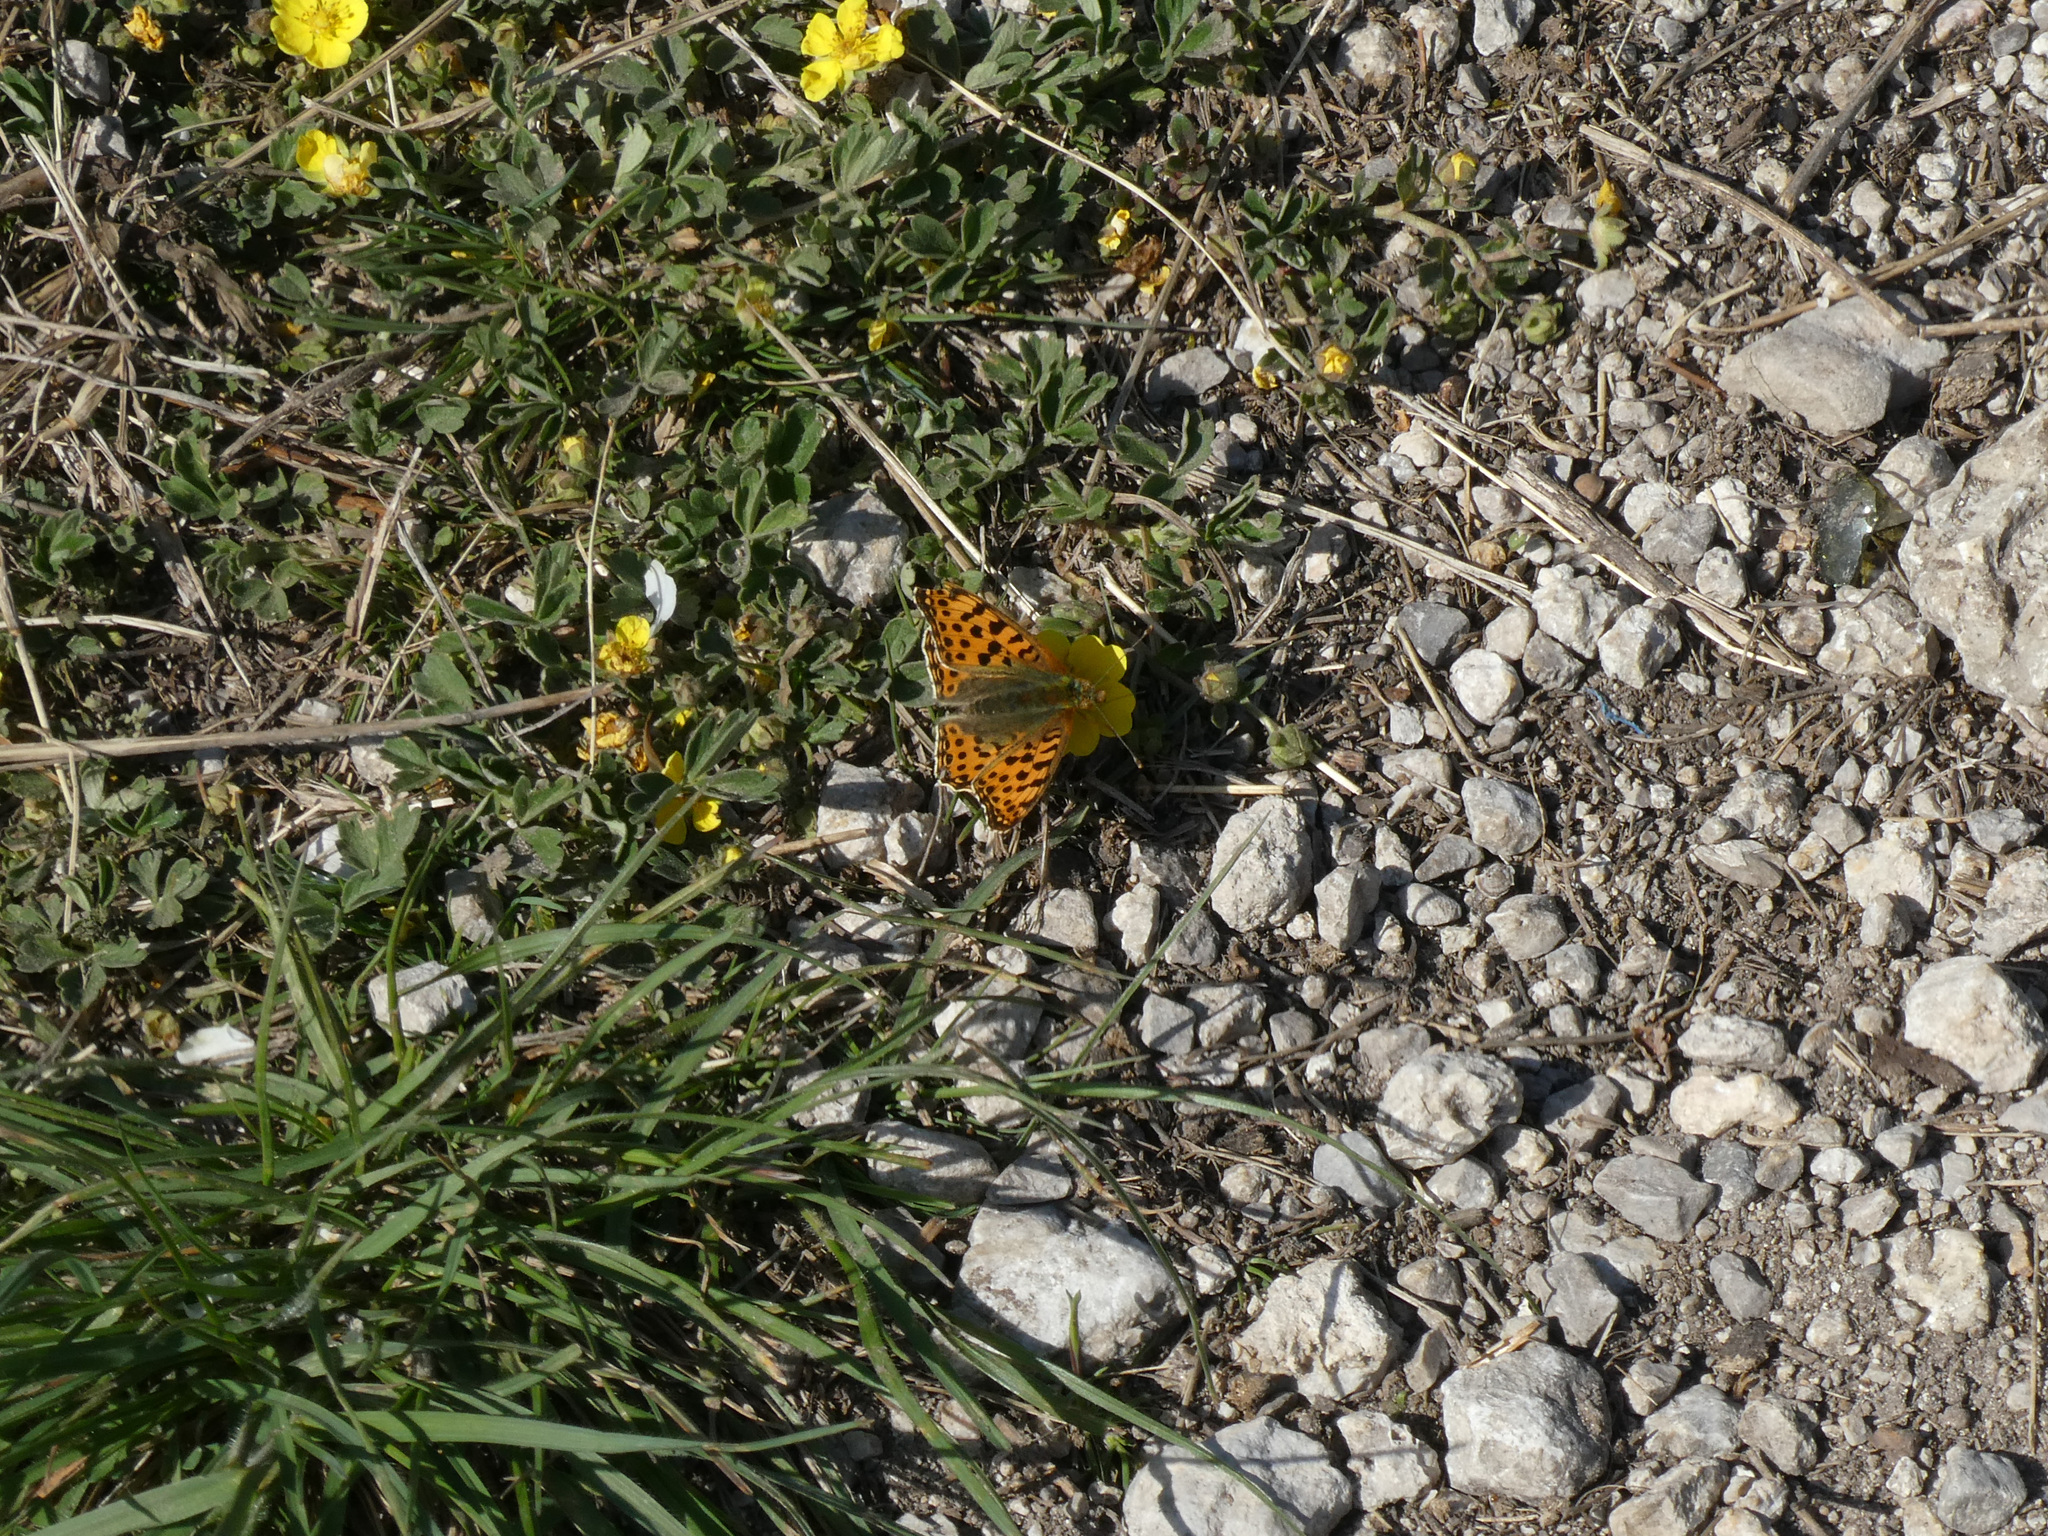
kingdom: Animalia
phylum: Arthropoda
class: Insecta
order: Lepidoptera
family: Nymphalidae
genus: Issoria
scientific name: Issoria lathonia
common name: Queen of spain fritillary
